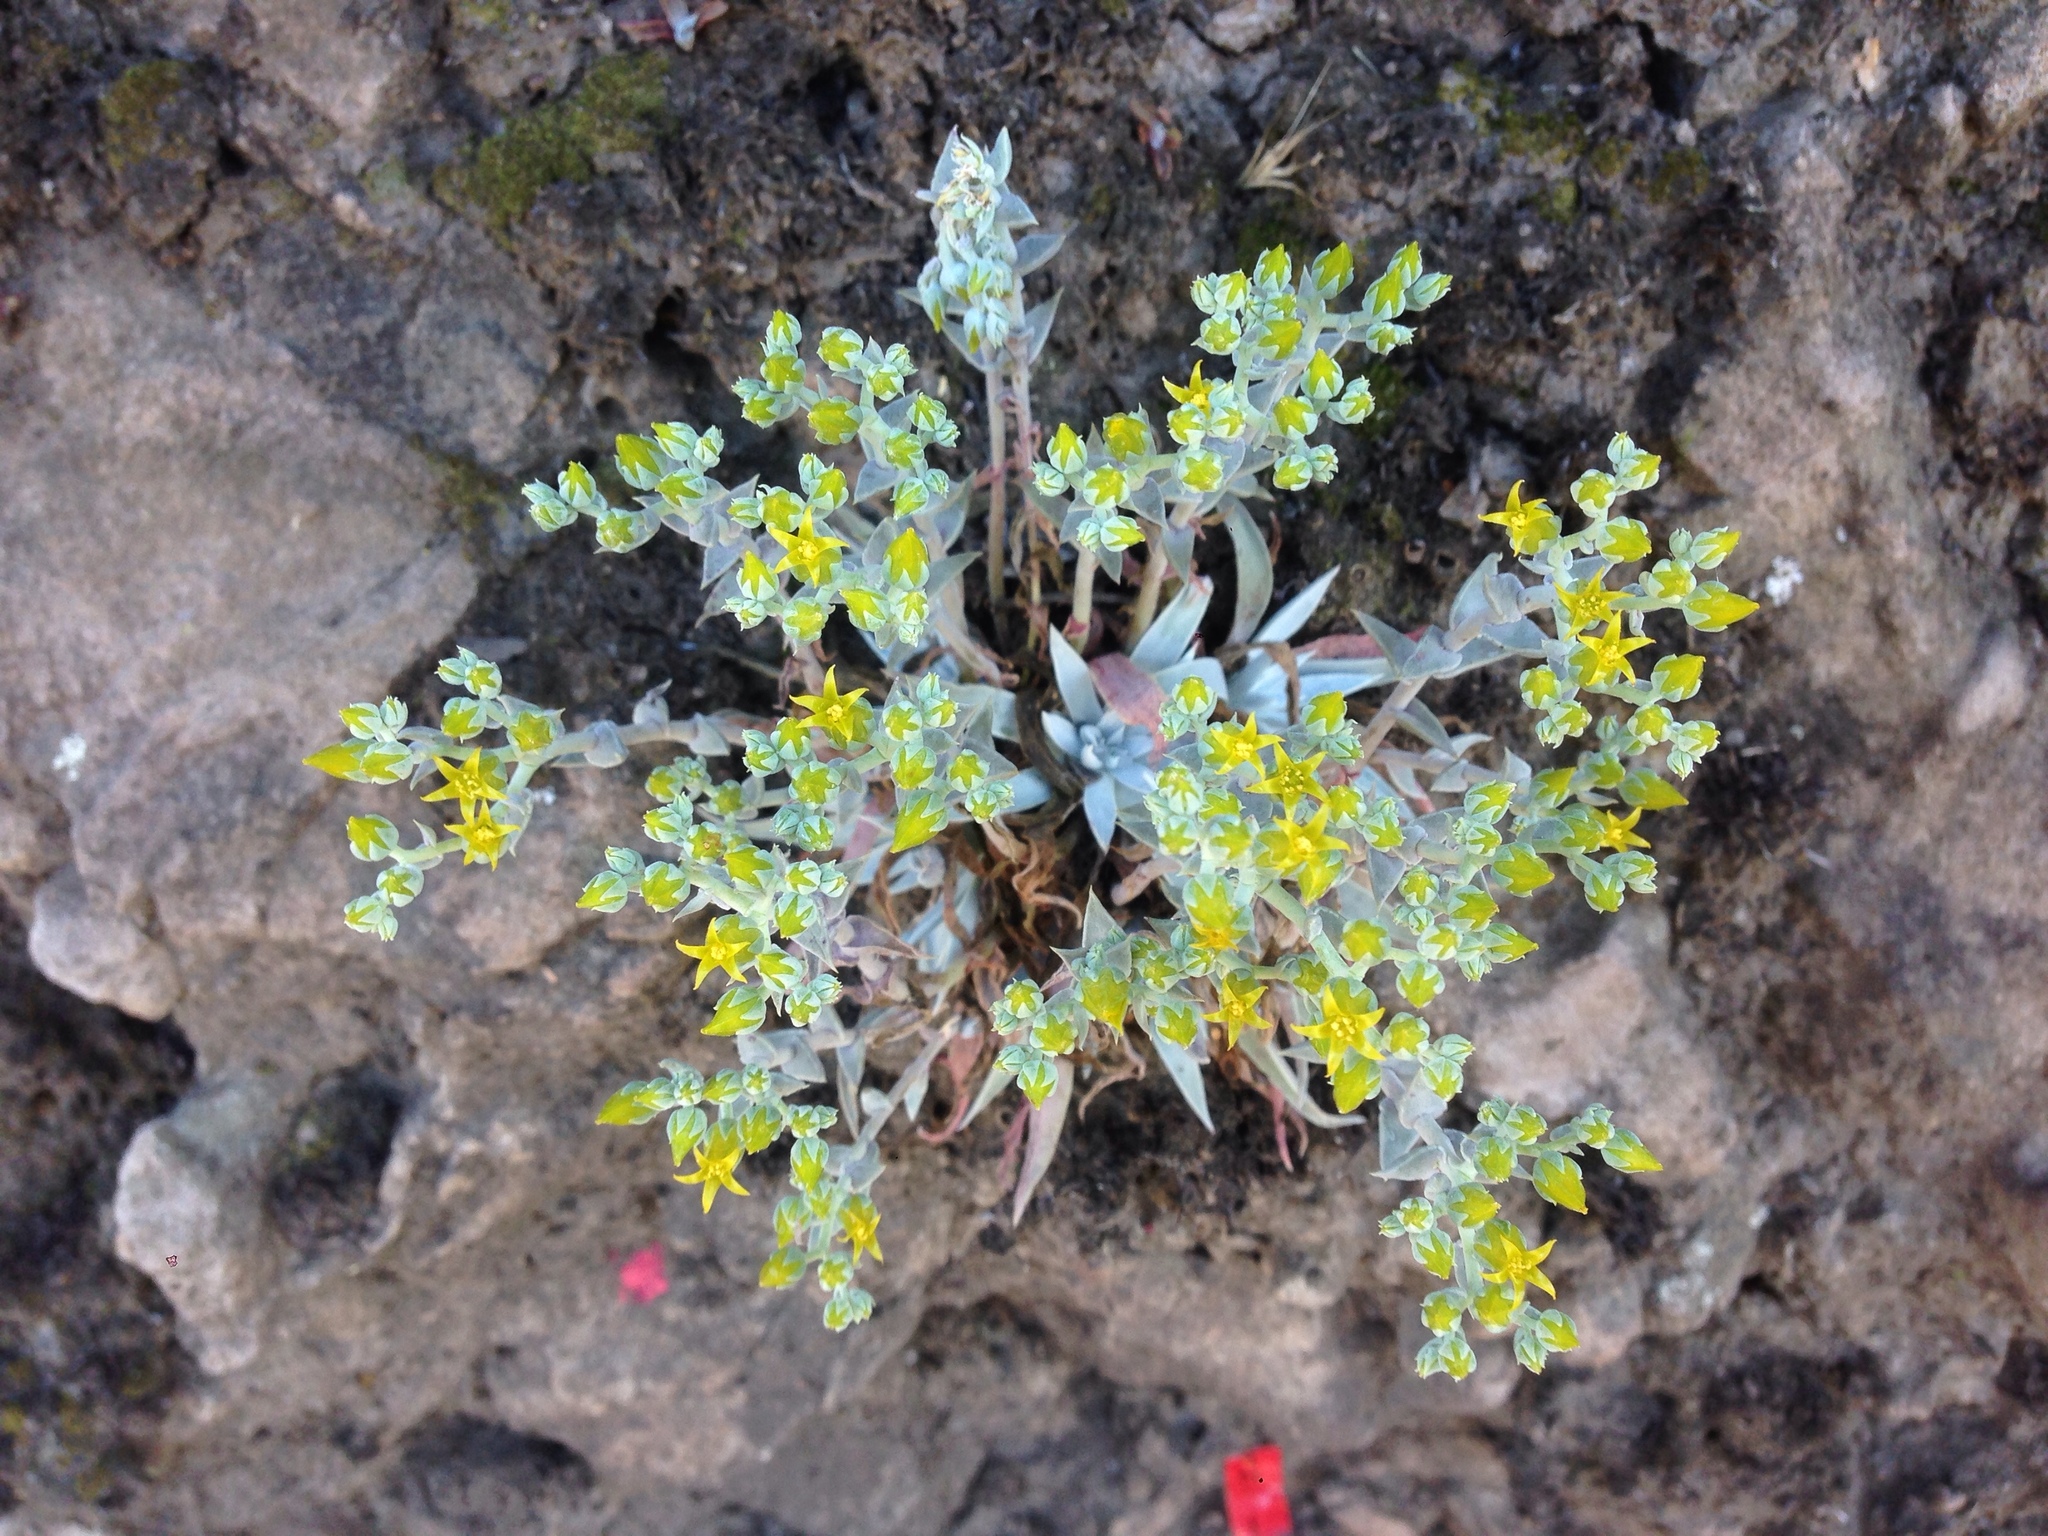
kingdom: Plantae
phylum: Tracheophyta
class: Magnoliopsida
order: Saxifragales
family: Crassulaceae
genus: Dudleya
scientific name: Dudleya verityi
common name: Verity dudleya
